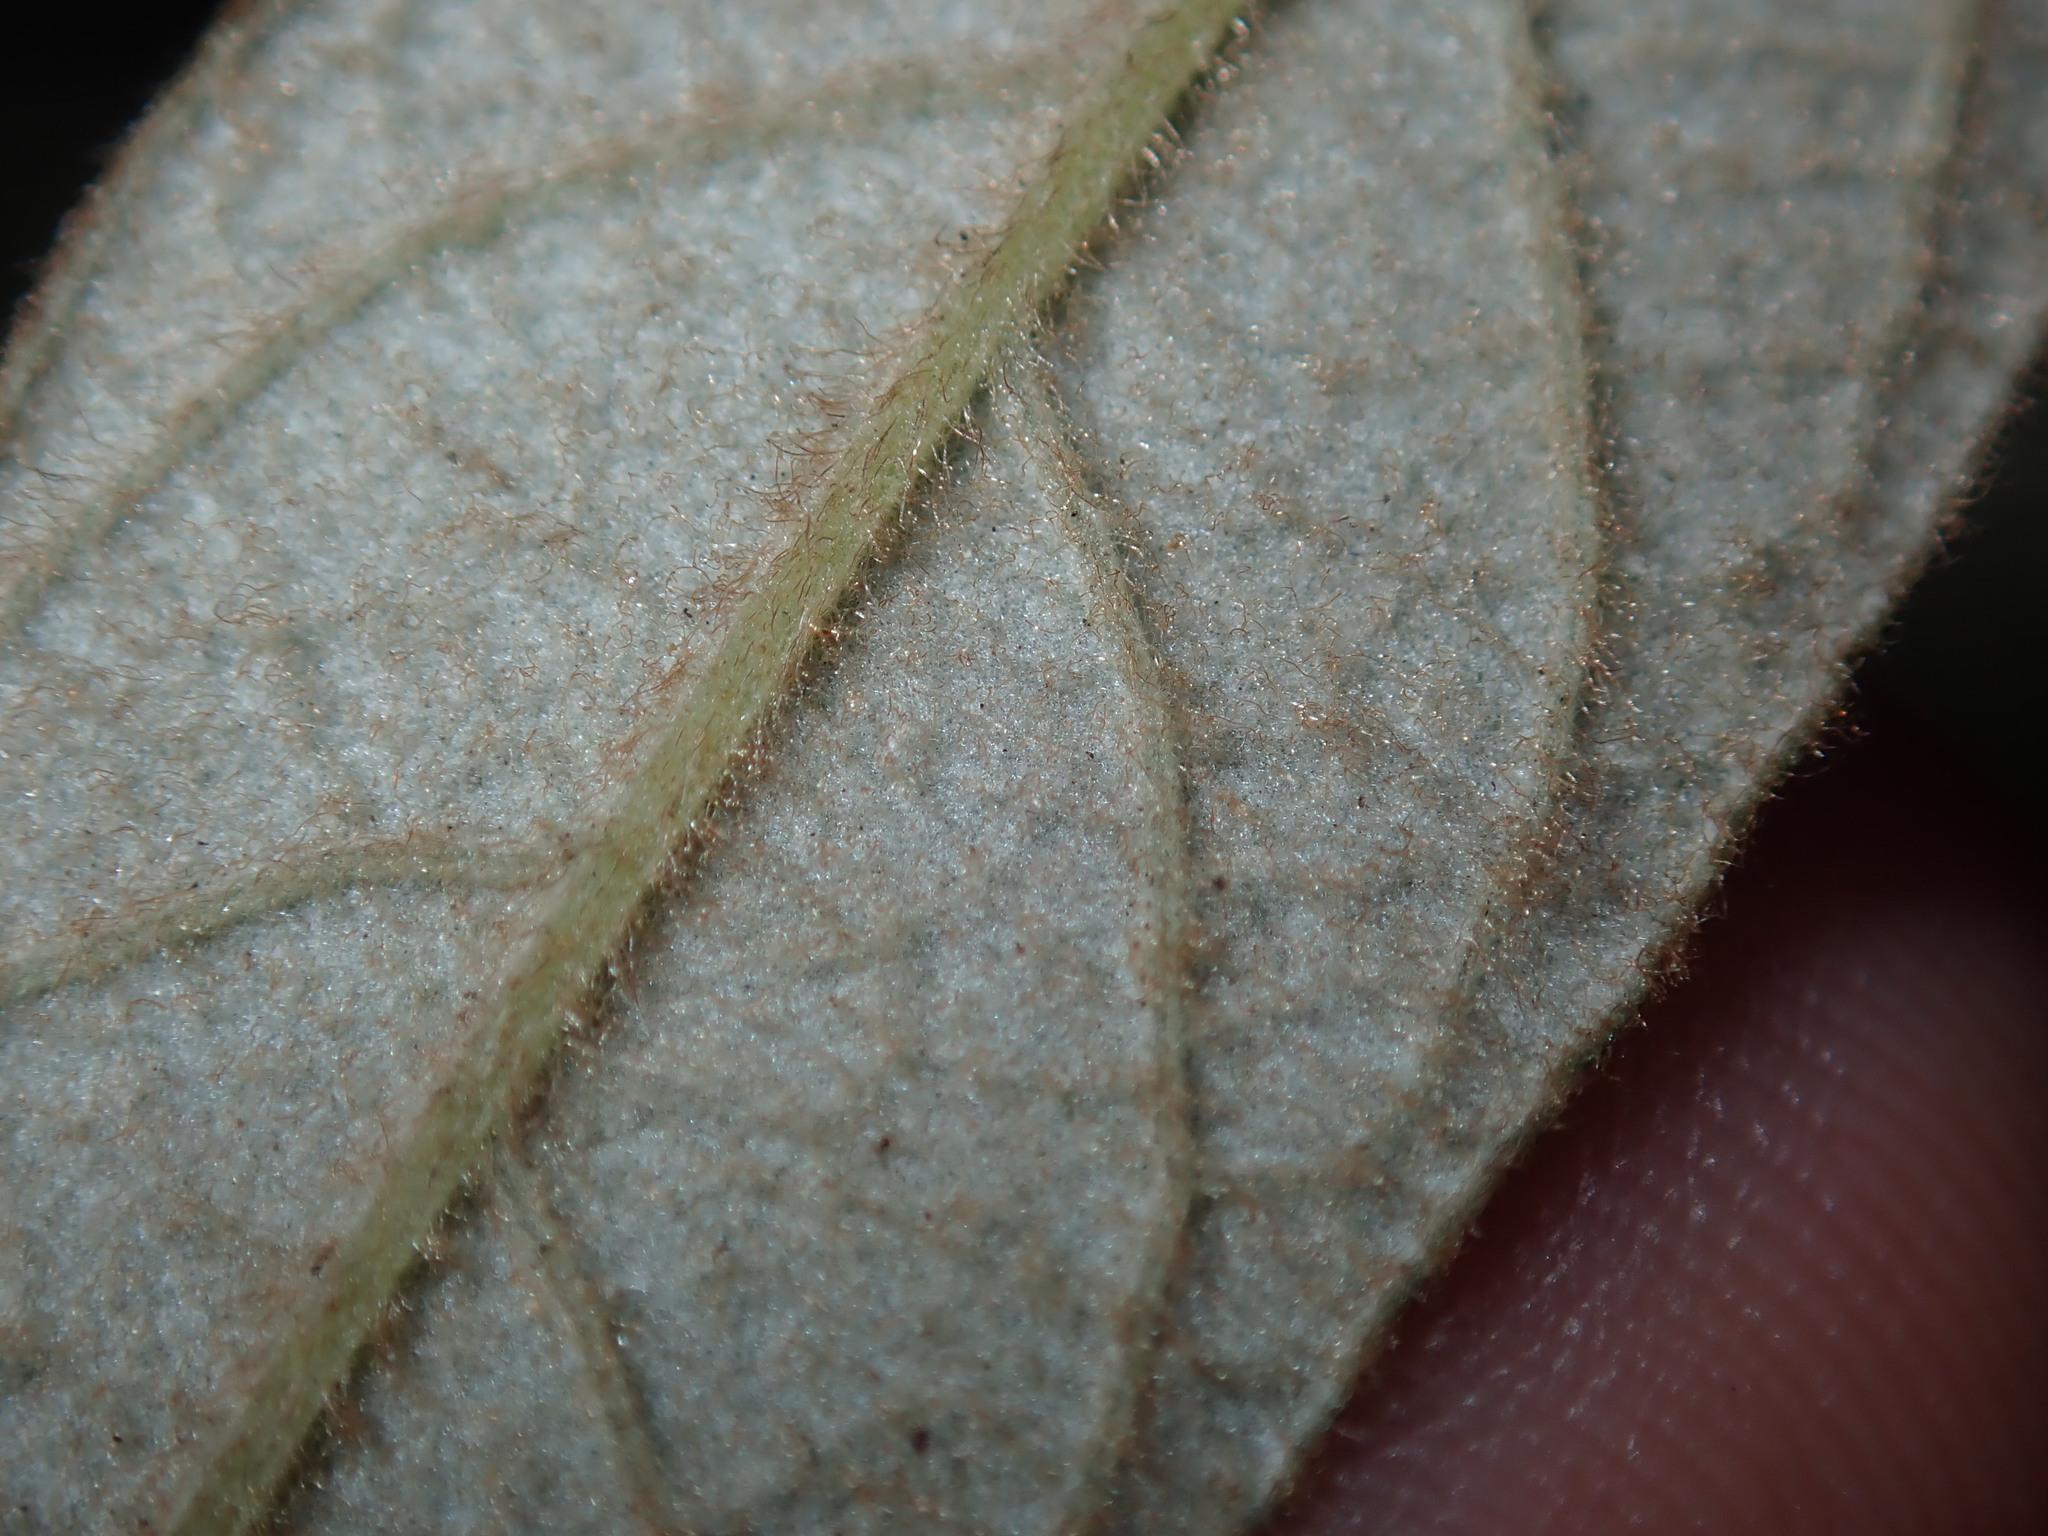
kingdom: Plantae
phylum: Tracheophyta
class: Magnoliopsida
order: Rosales
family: Rhamnaceae
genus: Pomaderris
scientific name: Pomaderris wendlandiana
